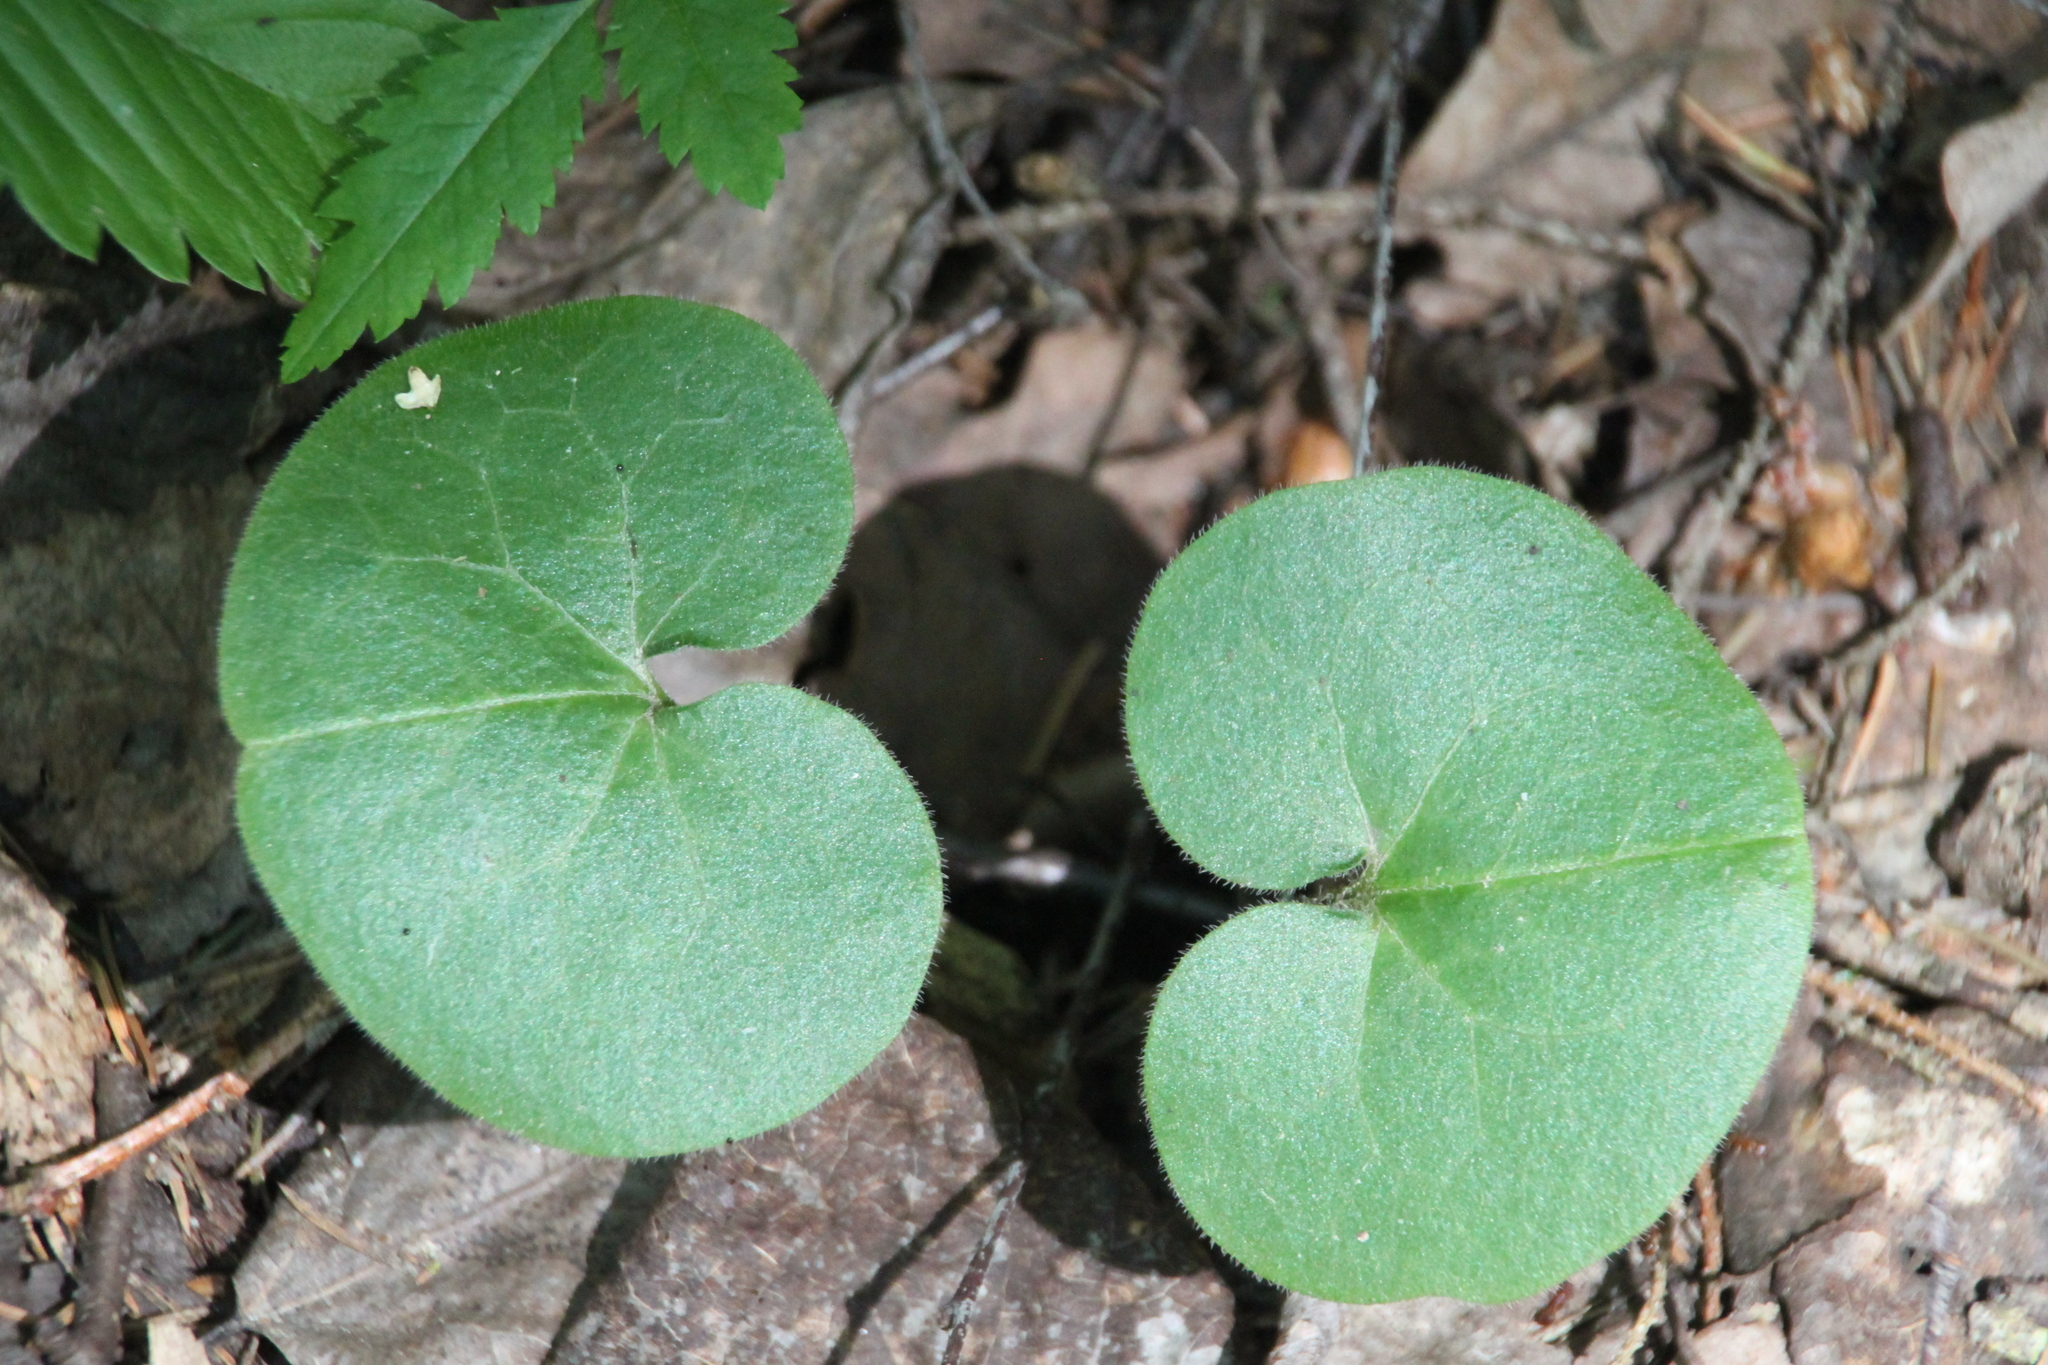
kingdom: Plantae
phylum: Tracheophyta
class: Magnoliopsida
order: Piperales
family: Aristolochiaceae
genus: Asarum
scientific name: Asarum europaeum
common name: Asarabacca
